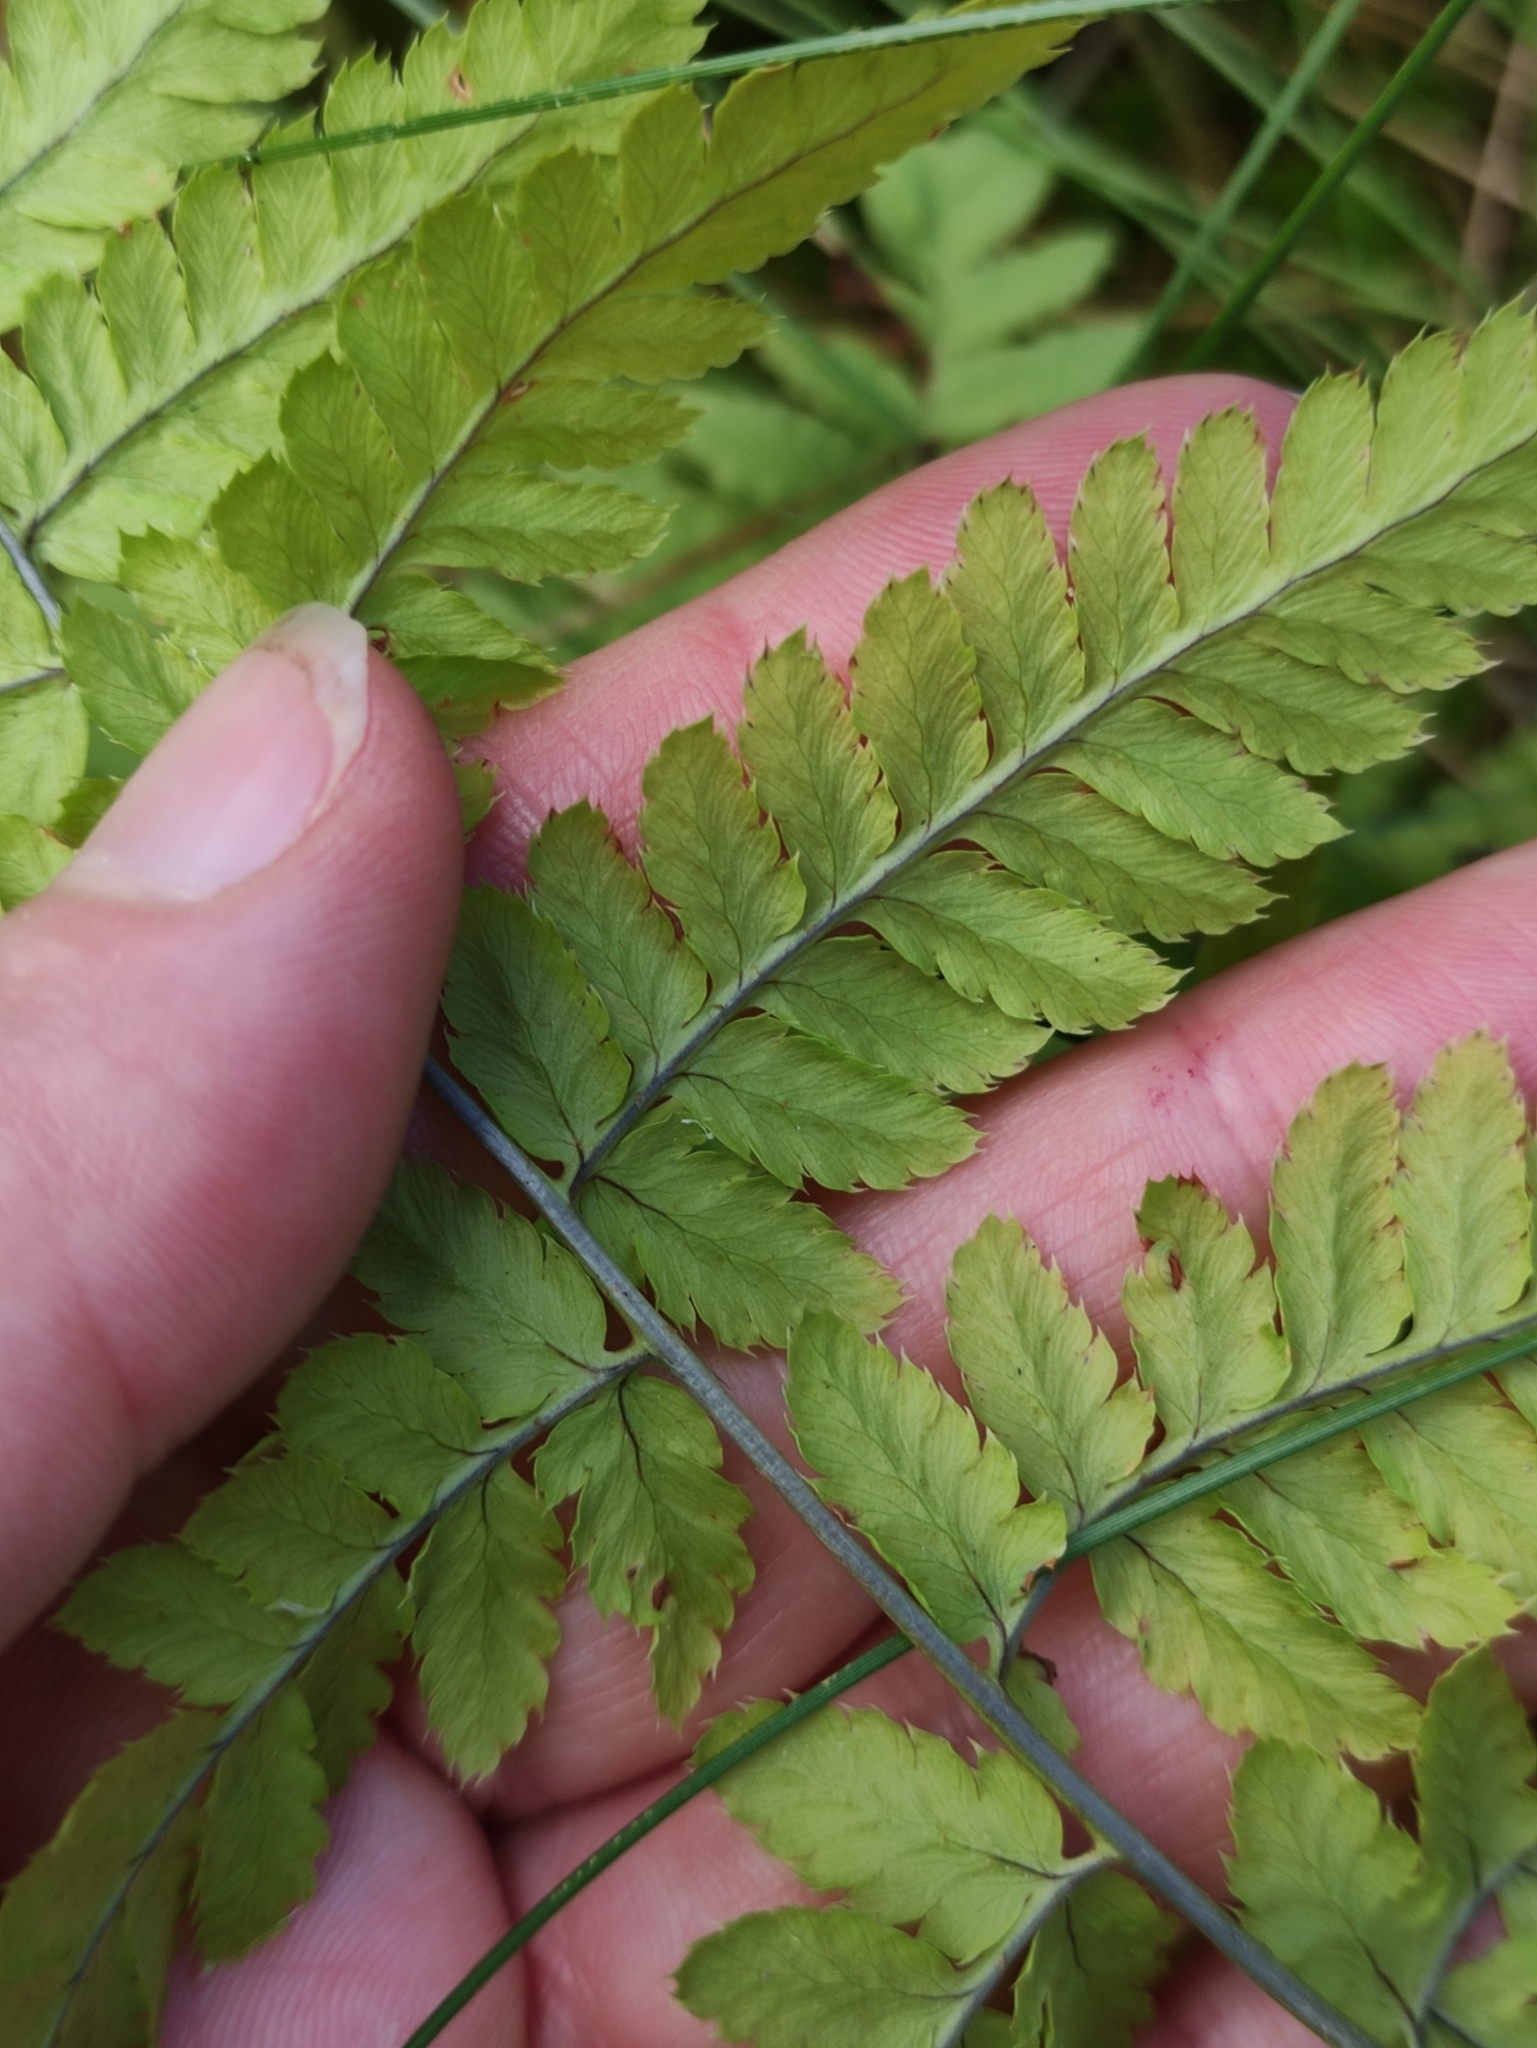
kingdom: Plantae
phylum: Tracheophyta
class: Polypodiopsida
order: Polypodiales
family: Dryopteridaceae
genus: Dryopteris
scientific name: Dryopteris carthusiana
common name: Narrow buckler-fern
